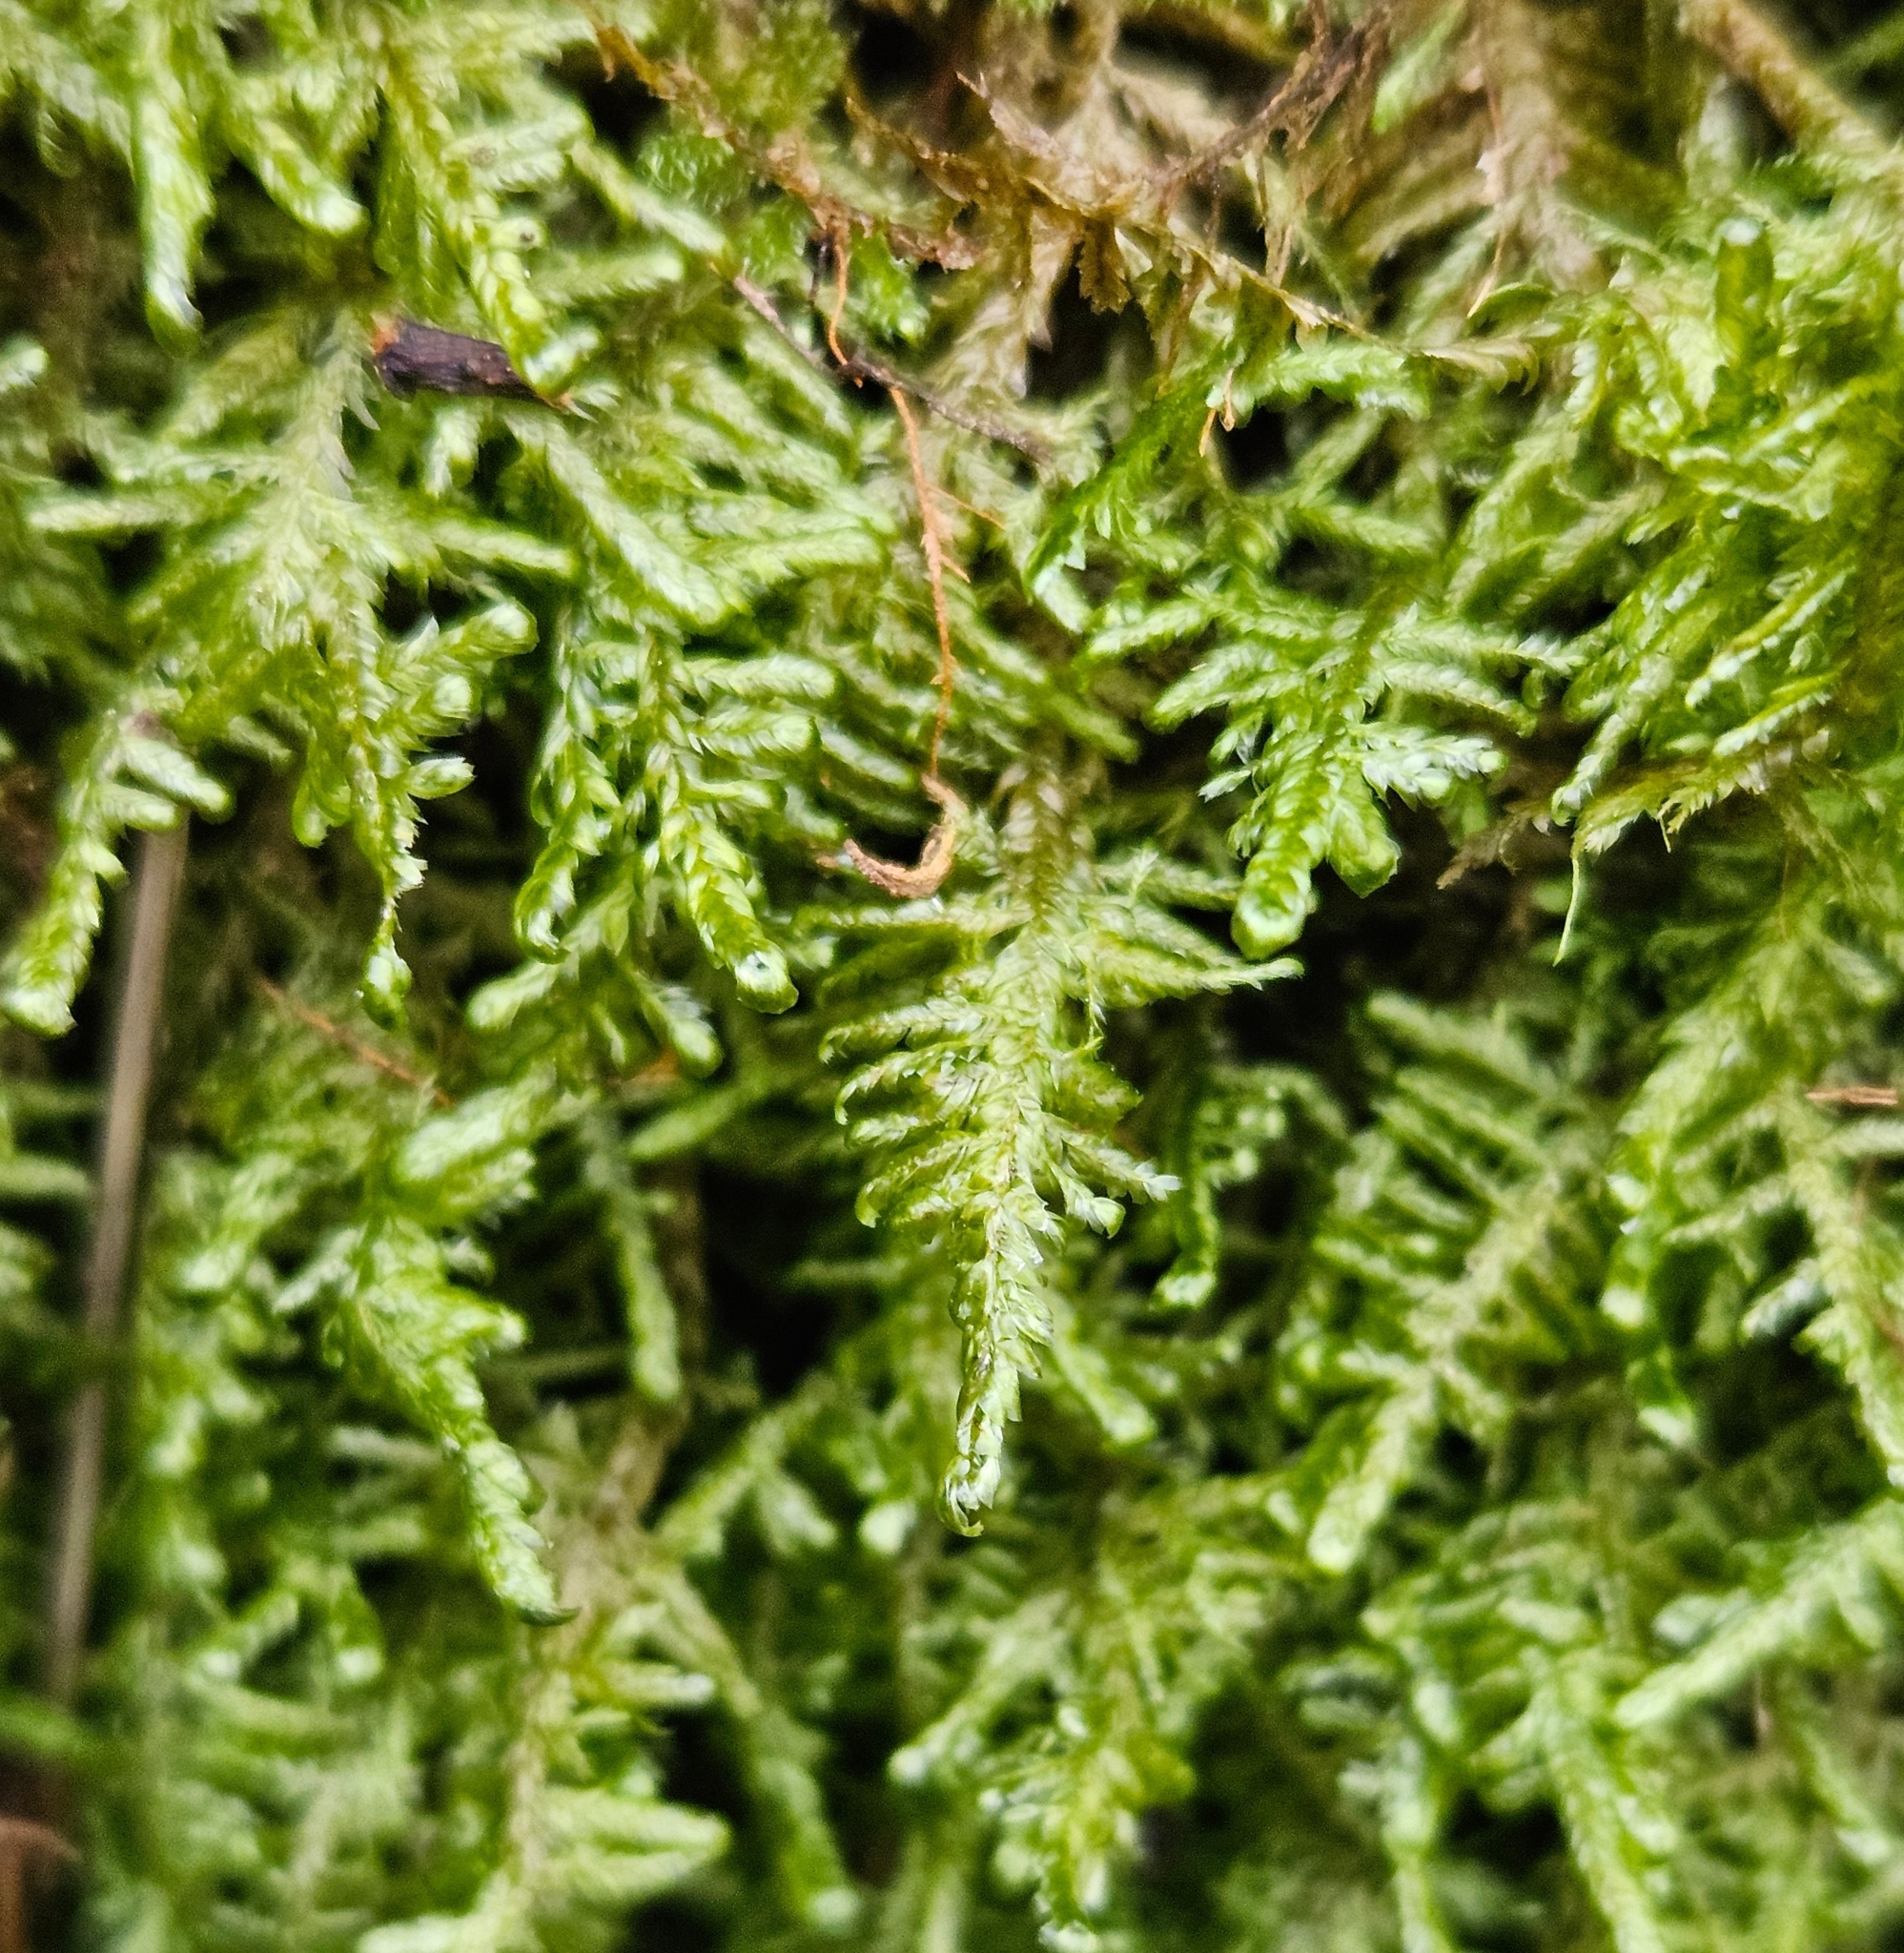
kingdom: Plantae
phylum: Bryophyta
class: Bryopsida
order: Hypnales
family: Neckeraceae
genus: Alleniella
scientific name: Alleniella complanata
